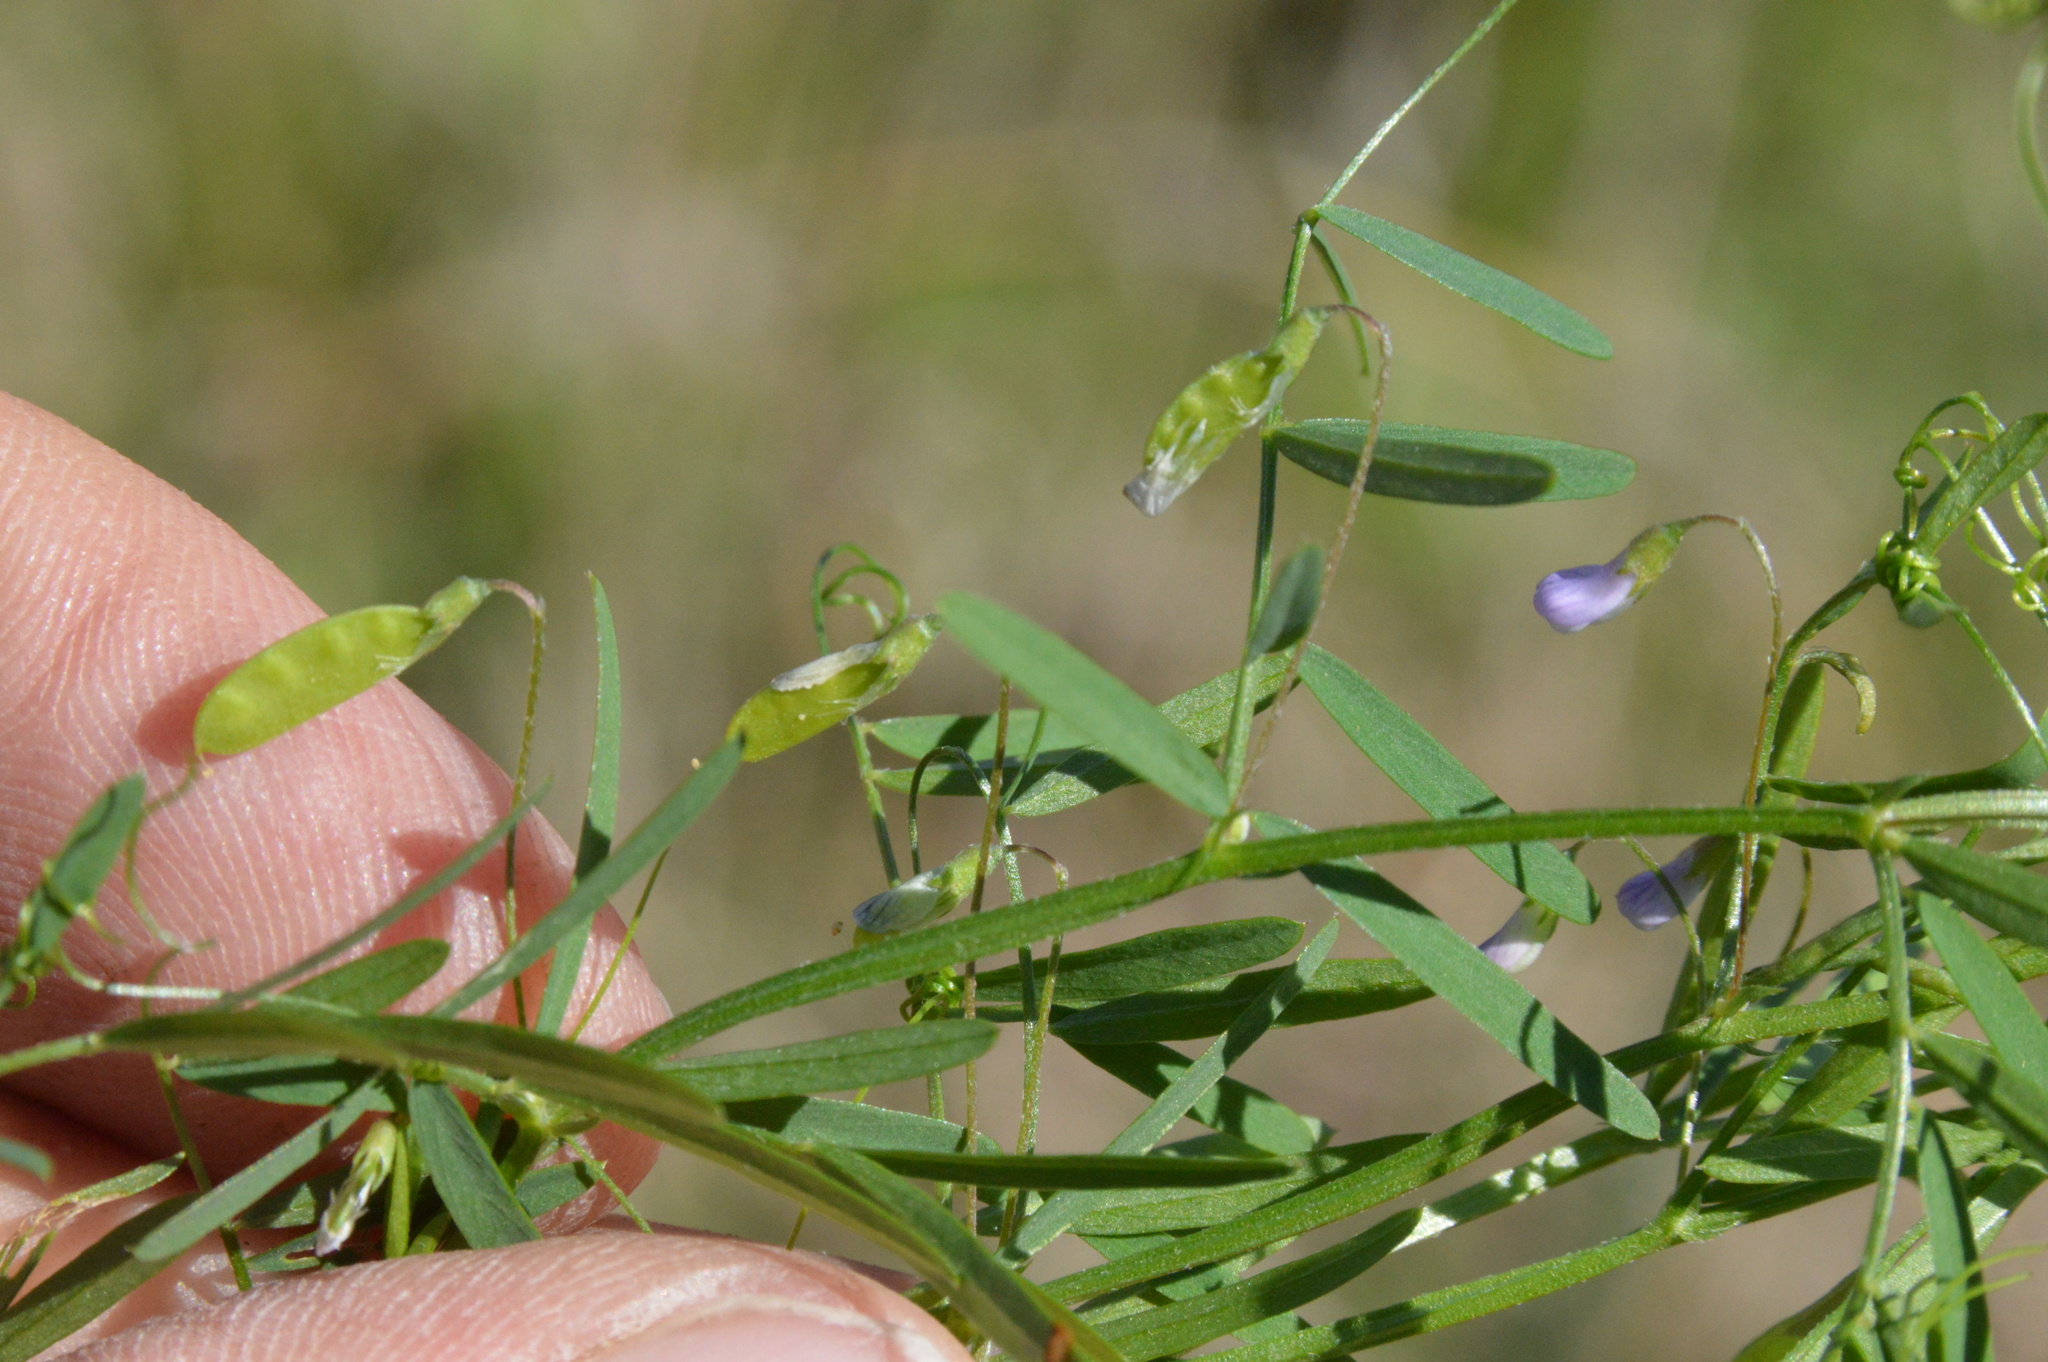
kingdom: Plantae
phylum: Tracheophyta
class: Magnoliopsida
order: Fabales
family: Fabaceae
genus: Vicia
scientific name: Vicia tetrasperma
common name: Smooth tare
